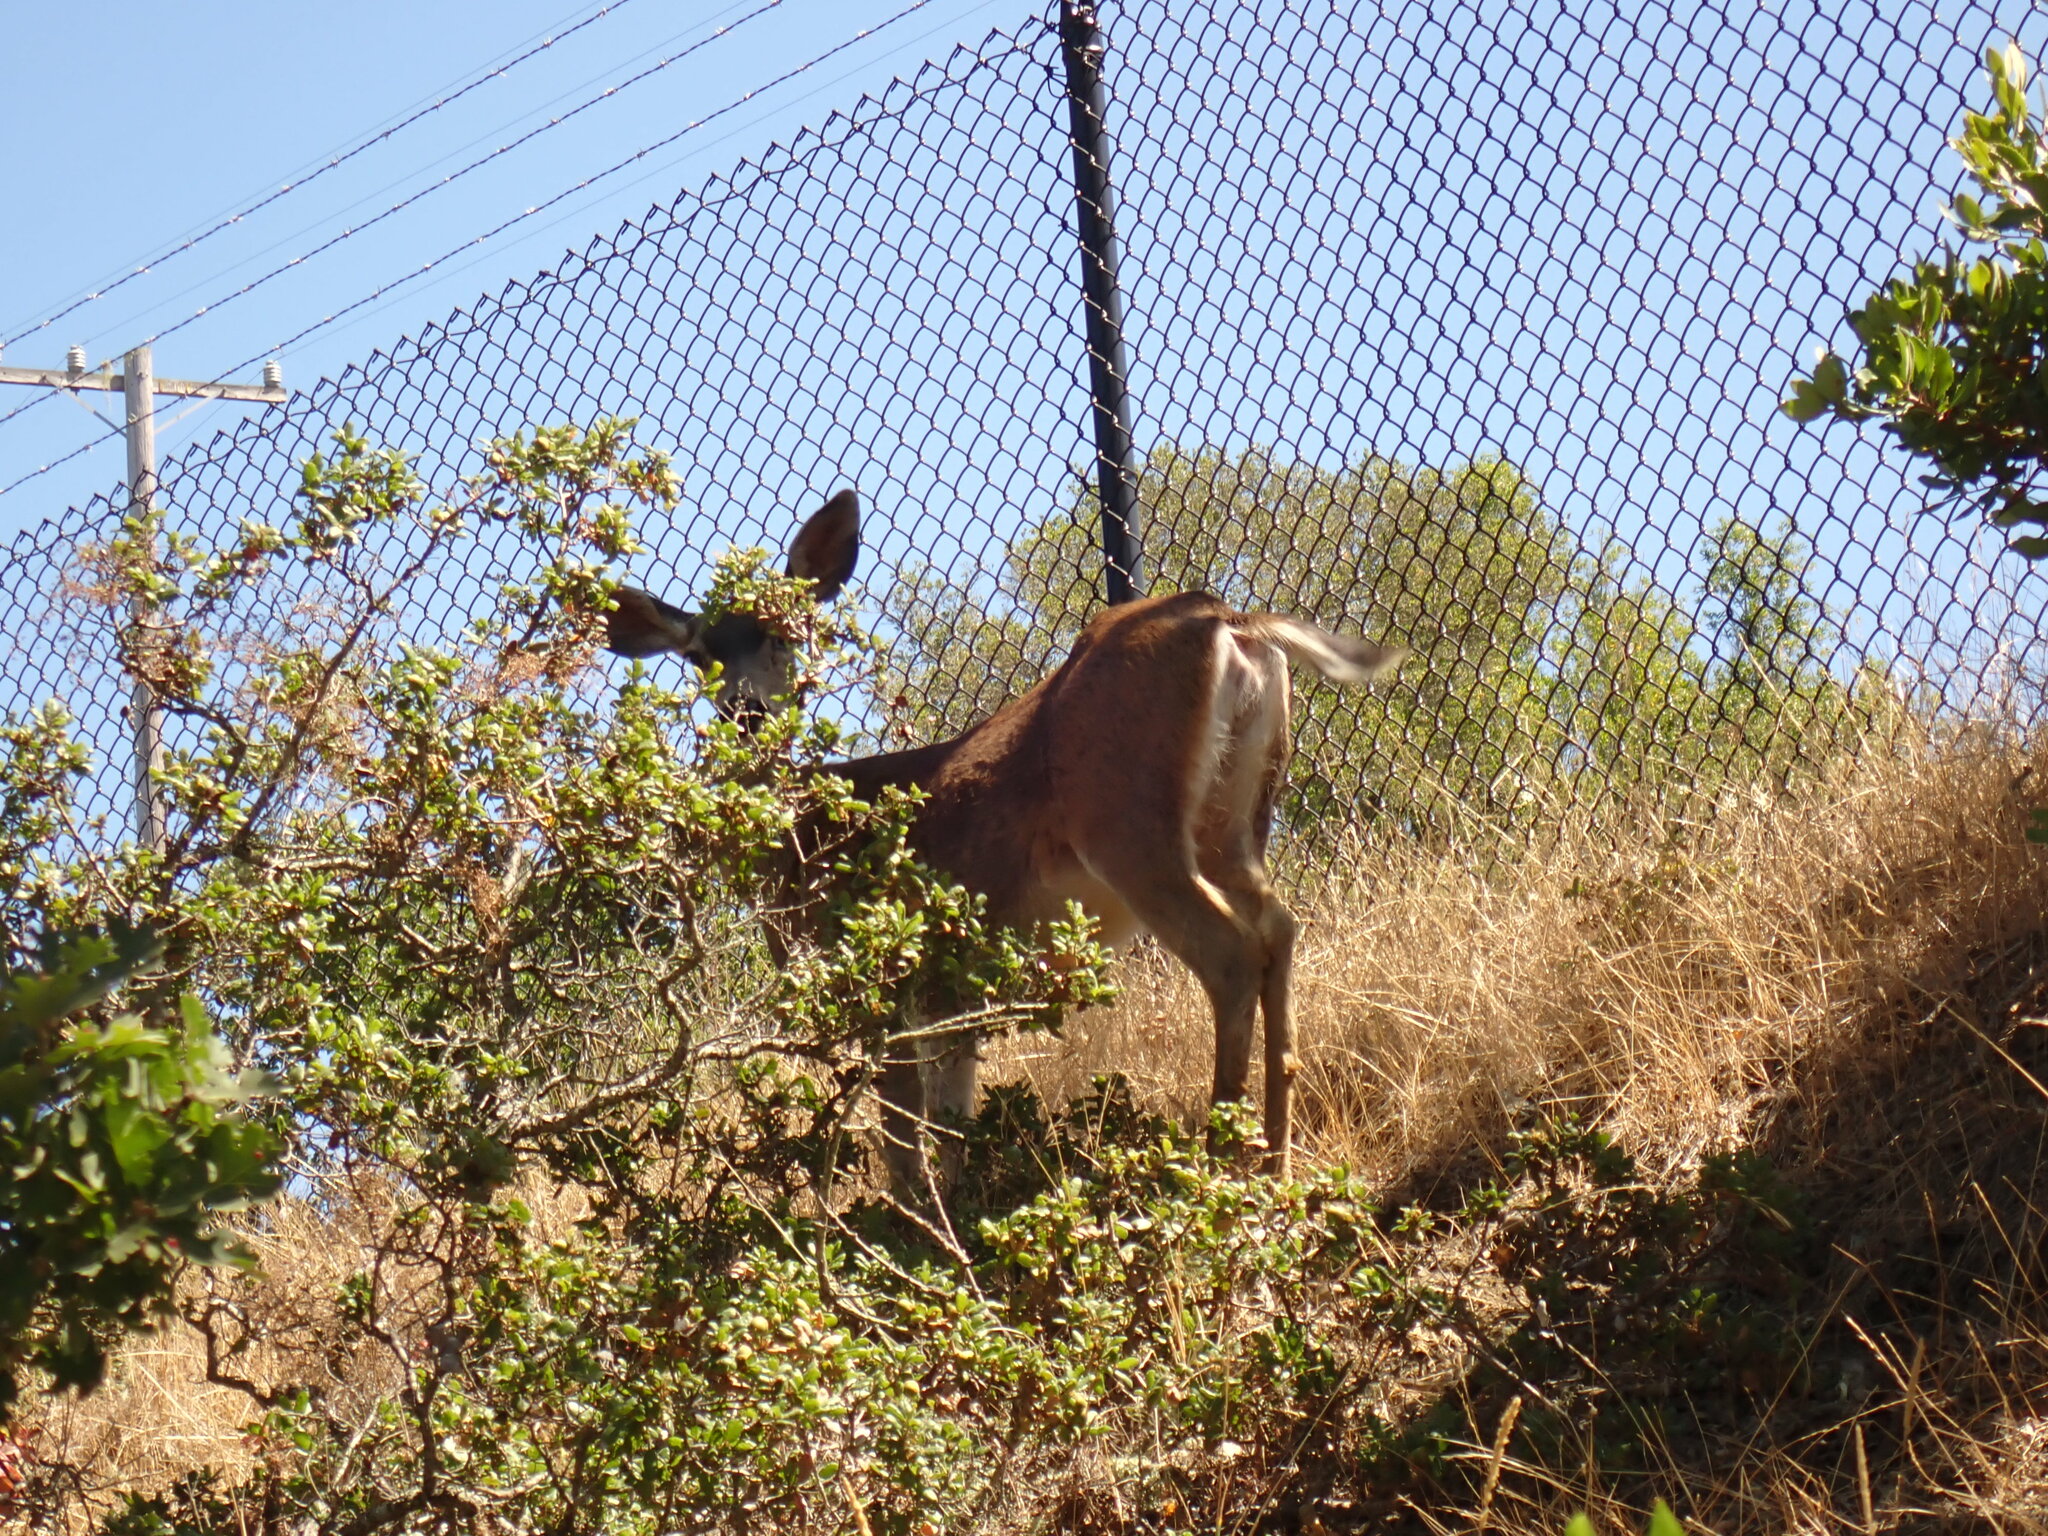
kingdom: Animalia
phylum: Chordata
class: Mammalia
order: Artiodactyla
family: Cervidae
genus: Odocoileus
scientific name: Odocoileus hemionus
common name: Mule deer
